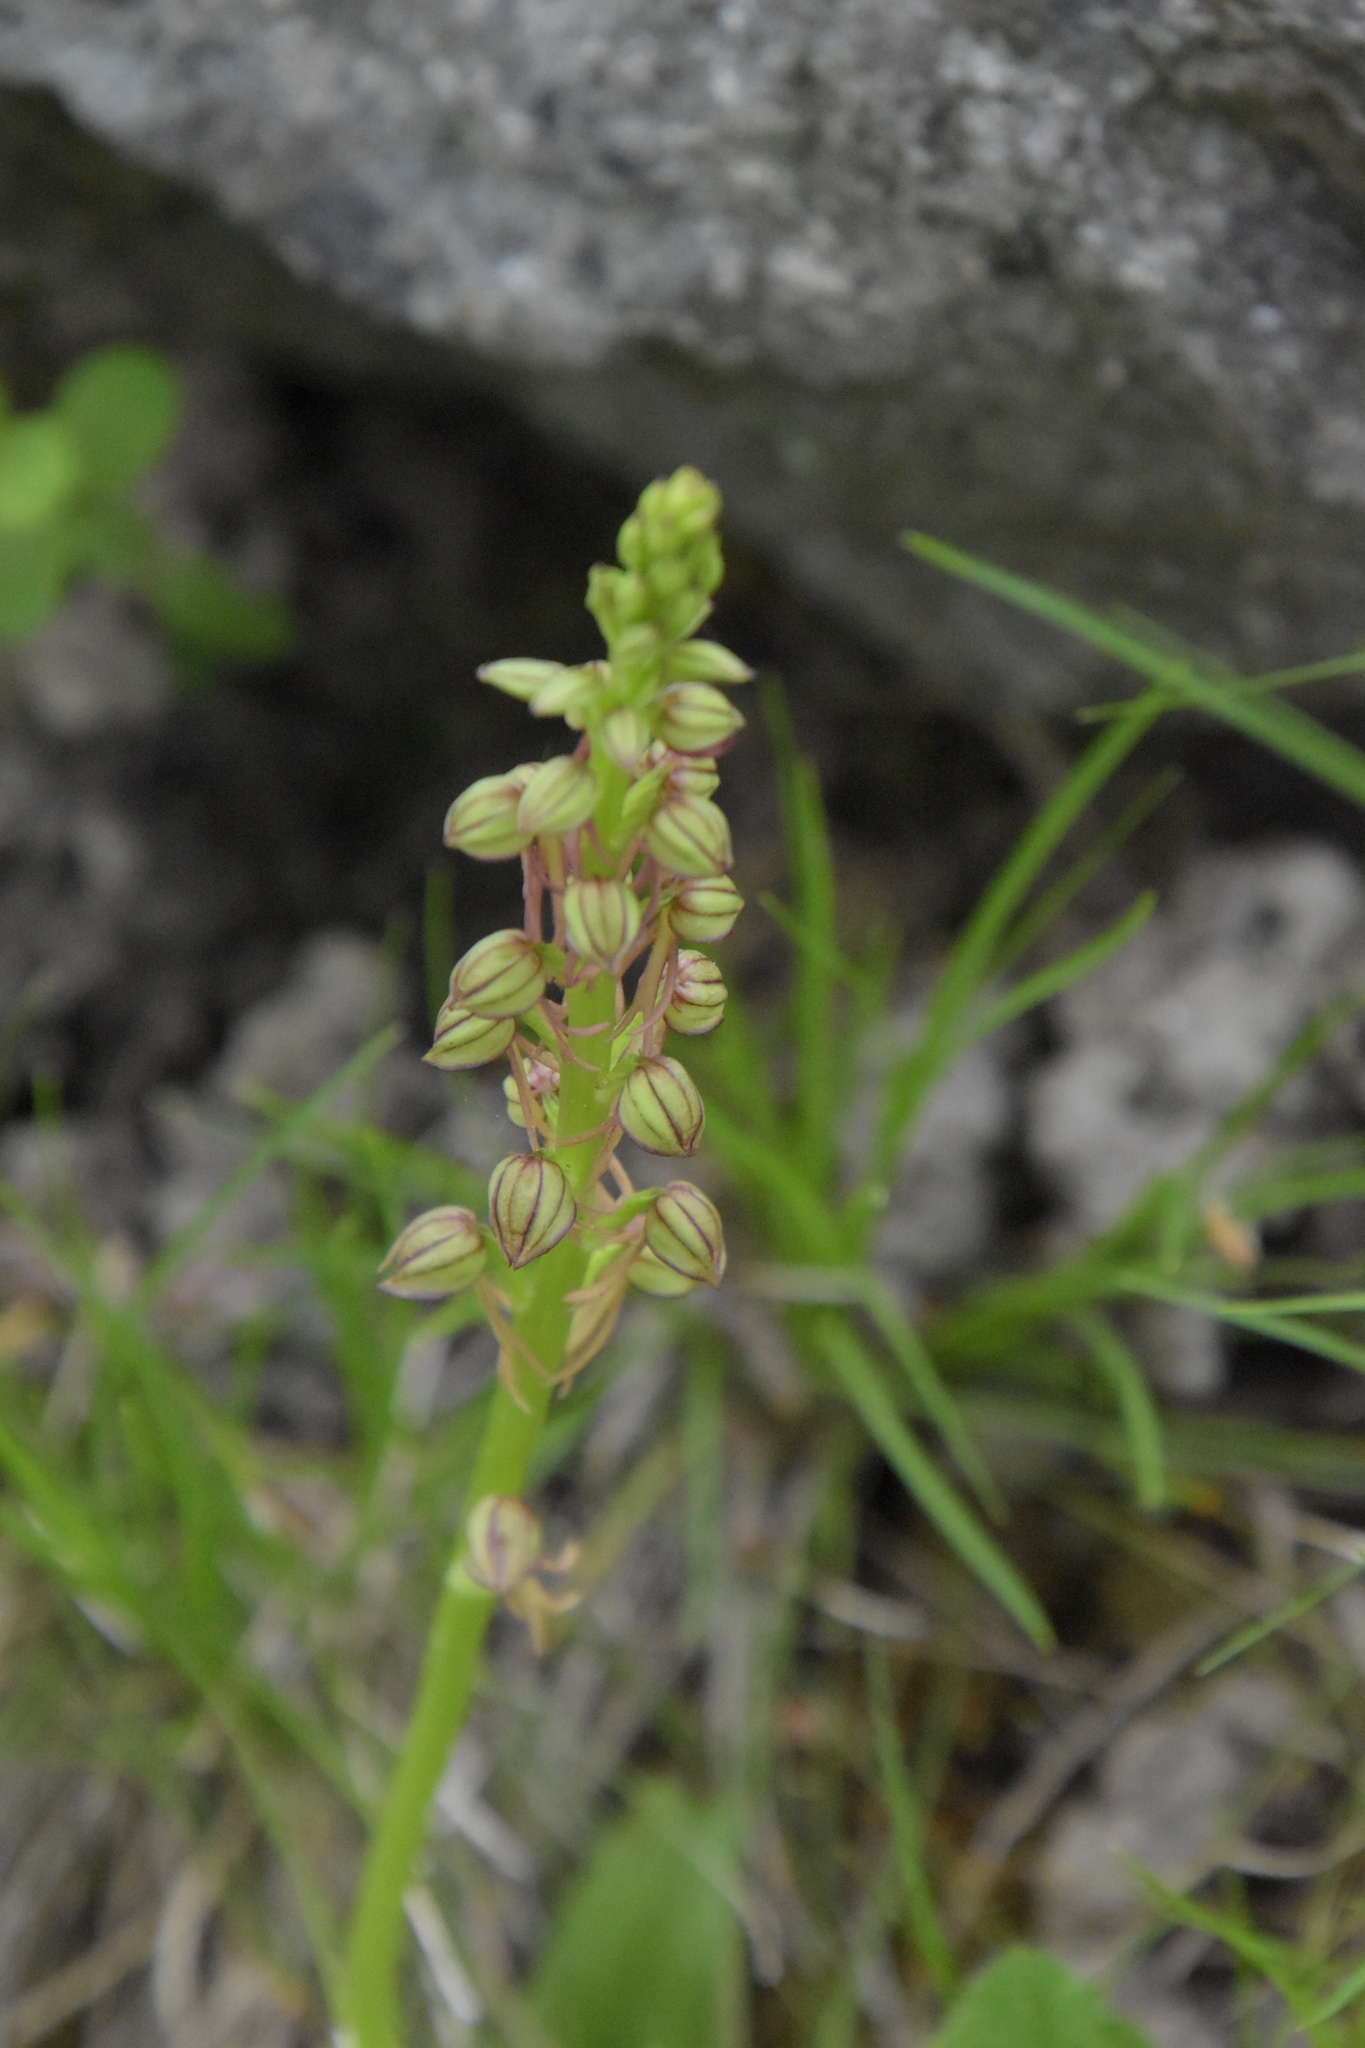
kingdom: Plantae
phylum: Tracheophyta
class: Liliopsida
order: Asparagales
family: Orchidaceae
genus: Orchis
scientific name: Orchis anthropophora
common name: Man orchid
